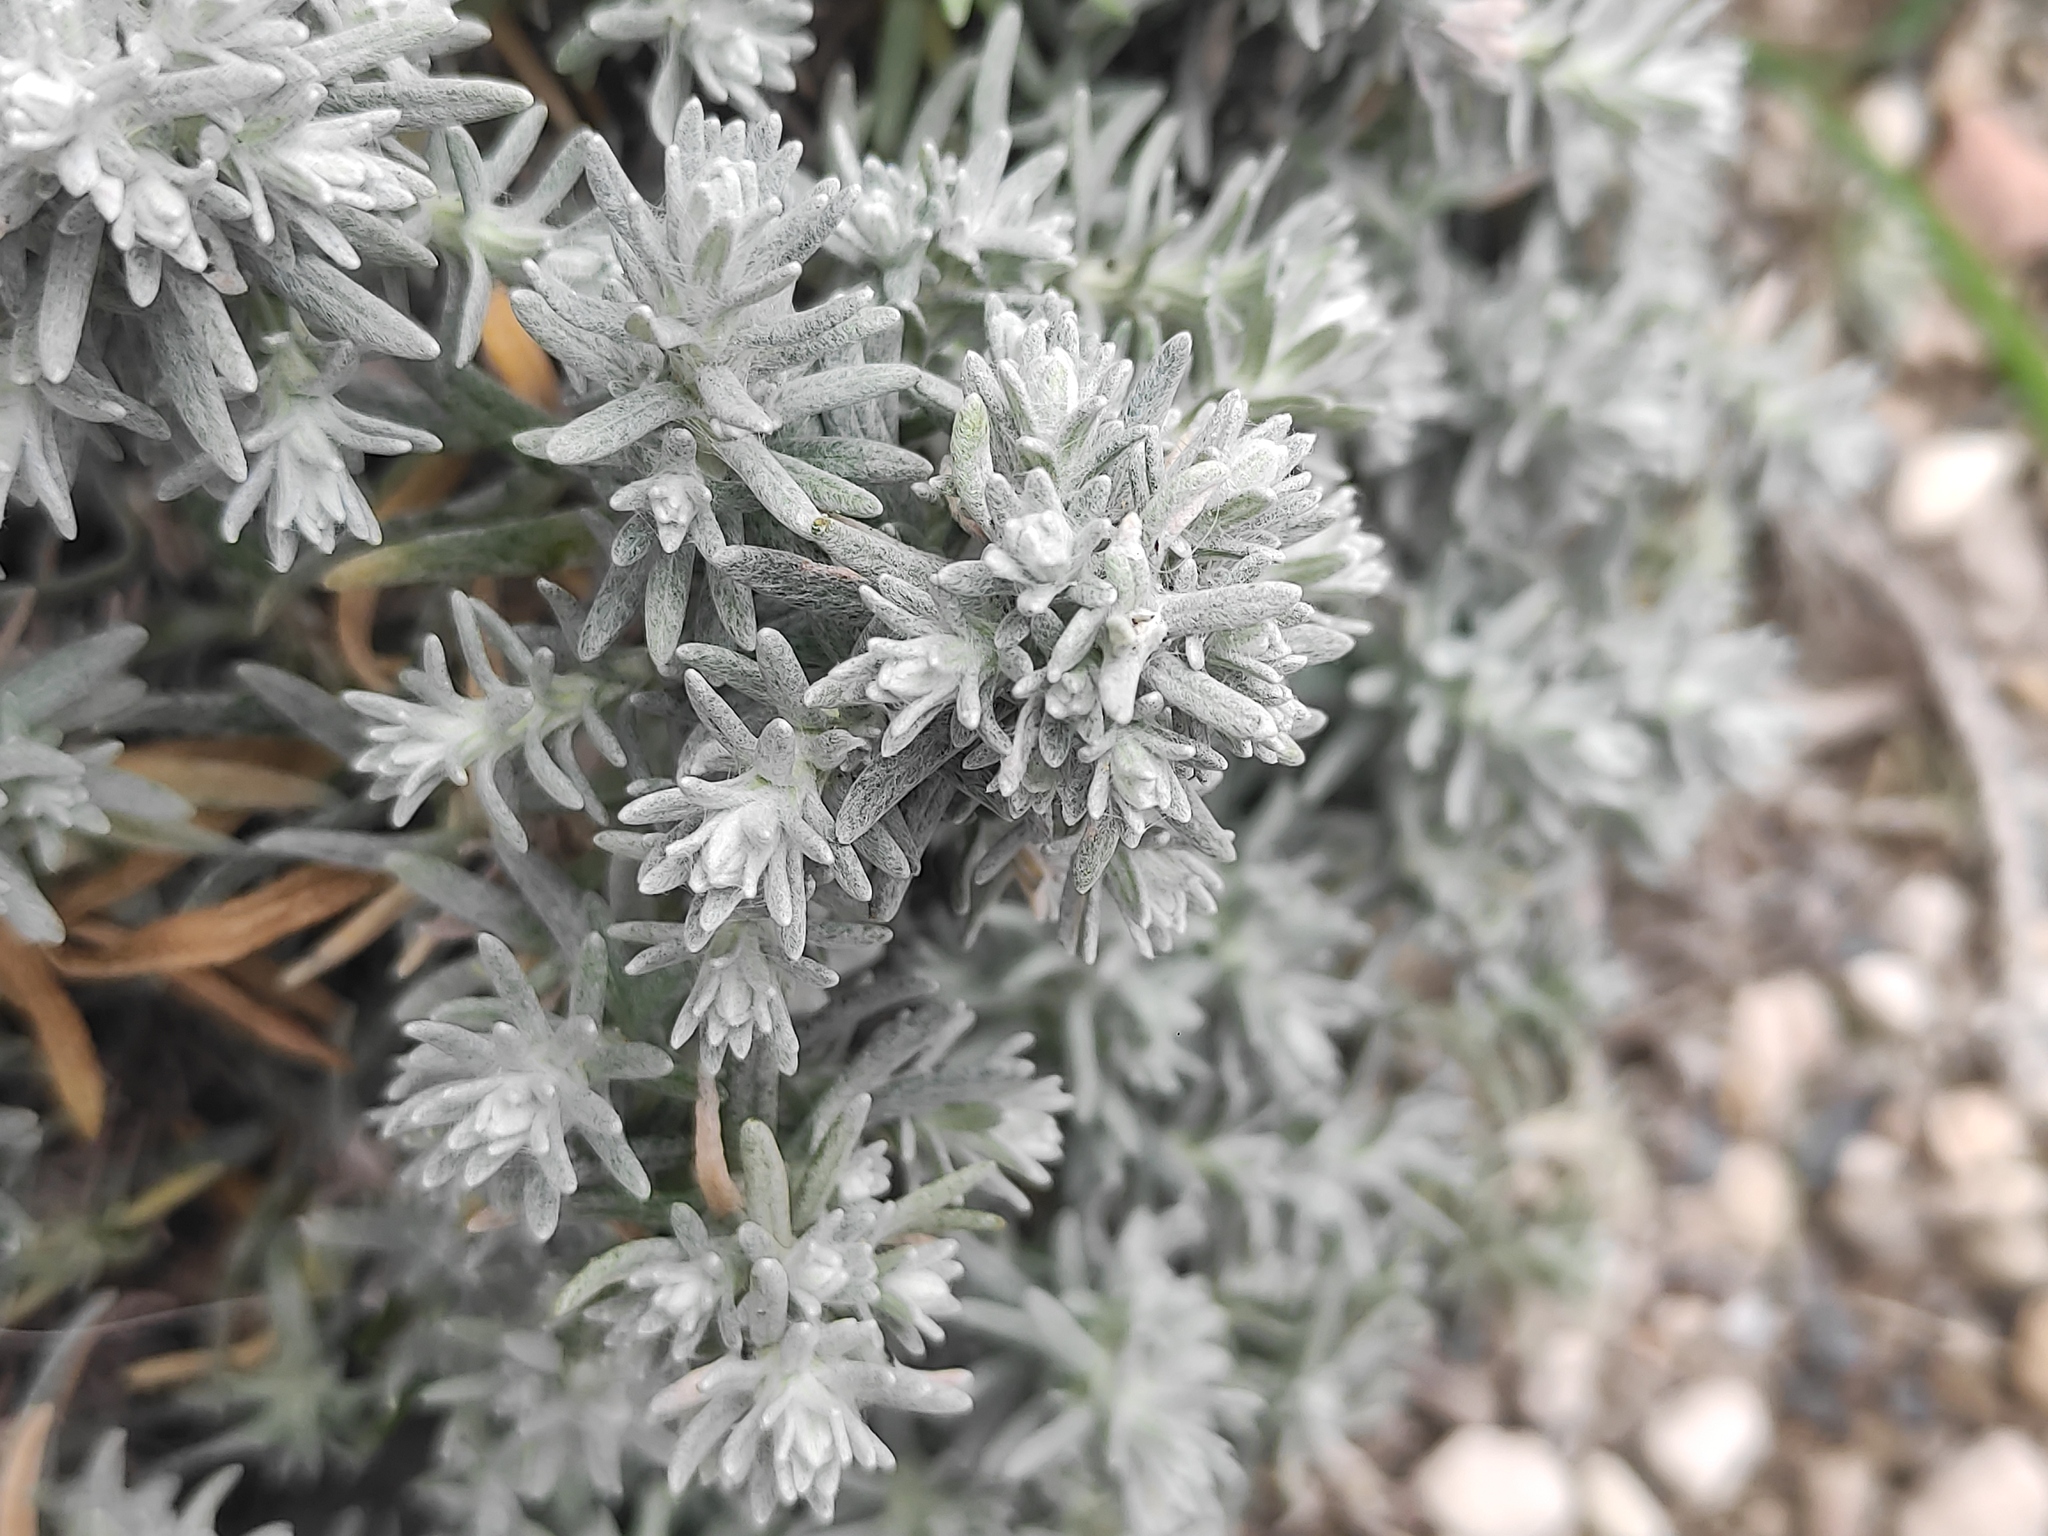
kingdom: Plantae
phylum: Tracheophyta
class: Magnoliopsida
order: Asterales
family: Asteraceae
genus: Helichrysum
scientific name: Helichrysum stoechas
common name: Goldilocks
